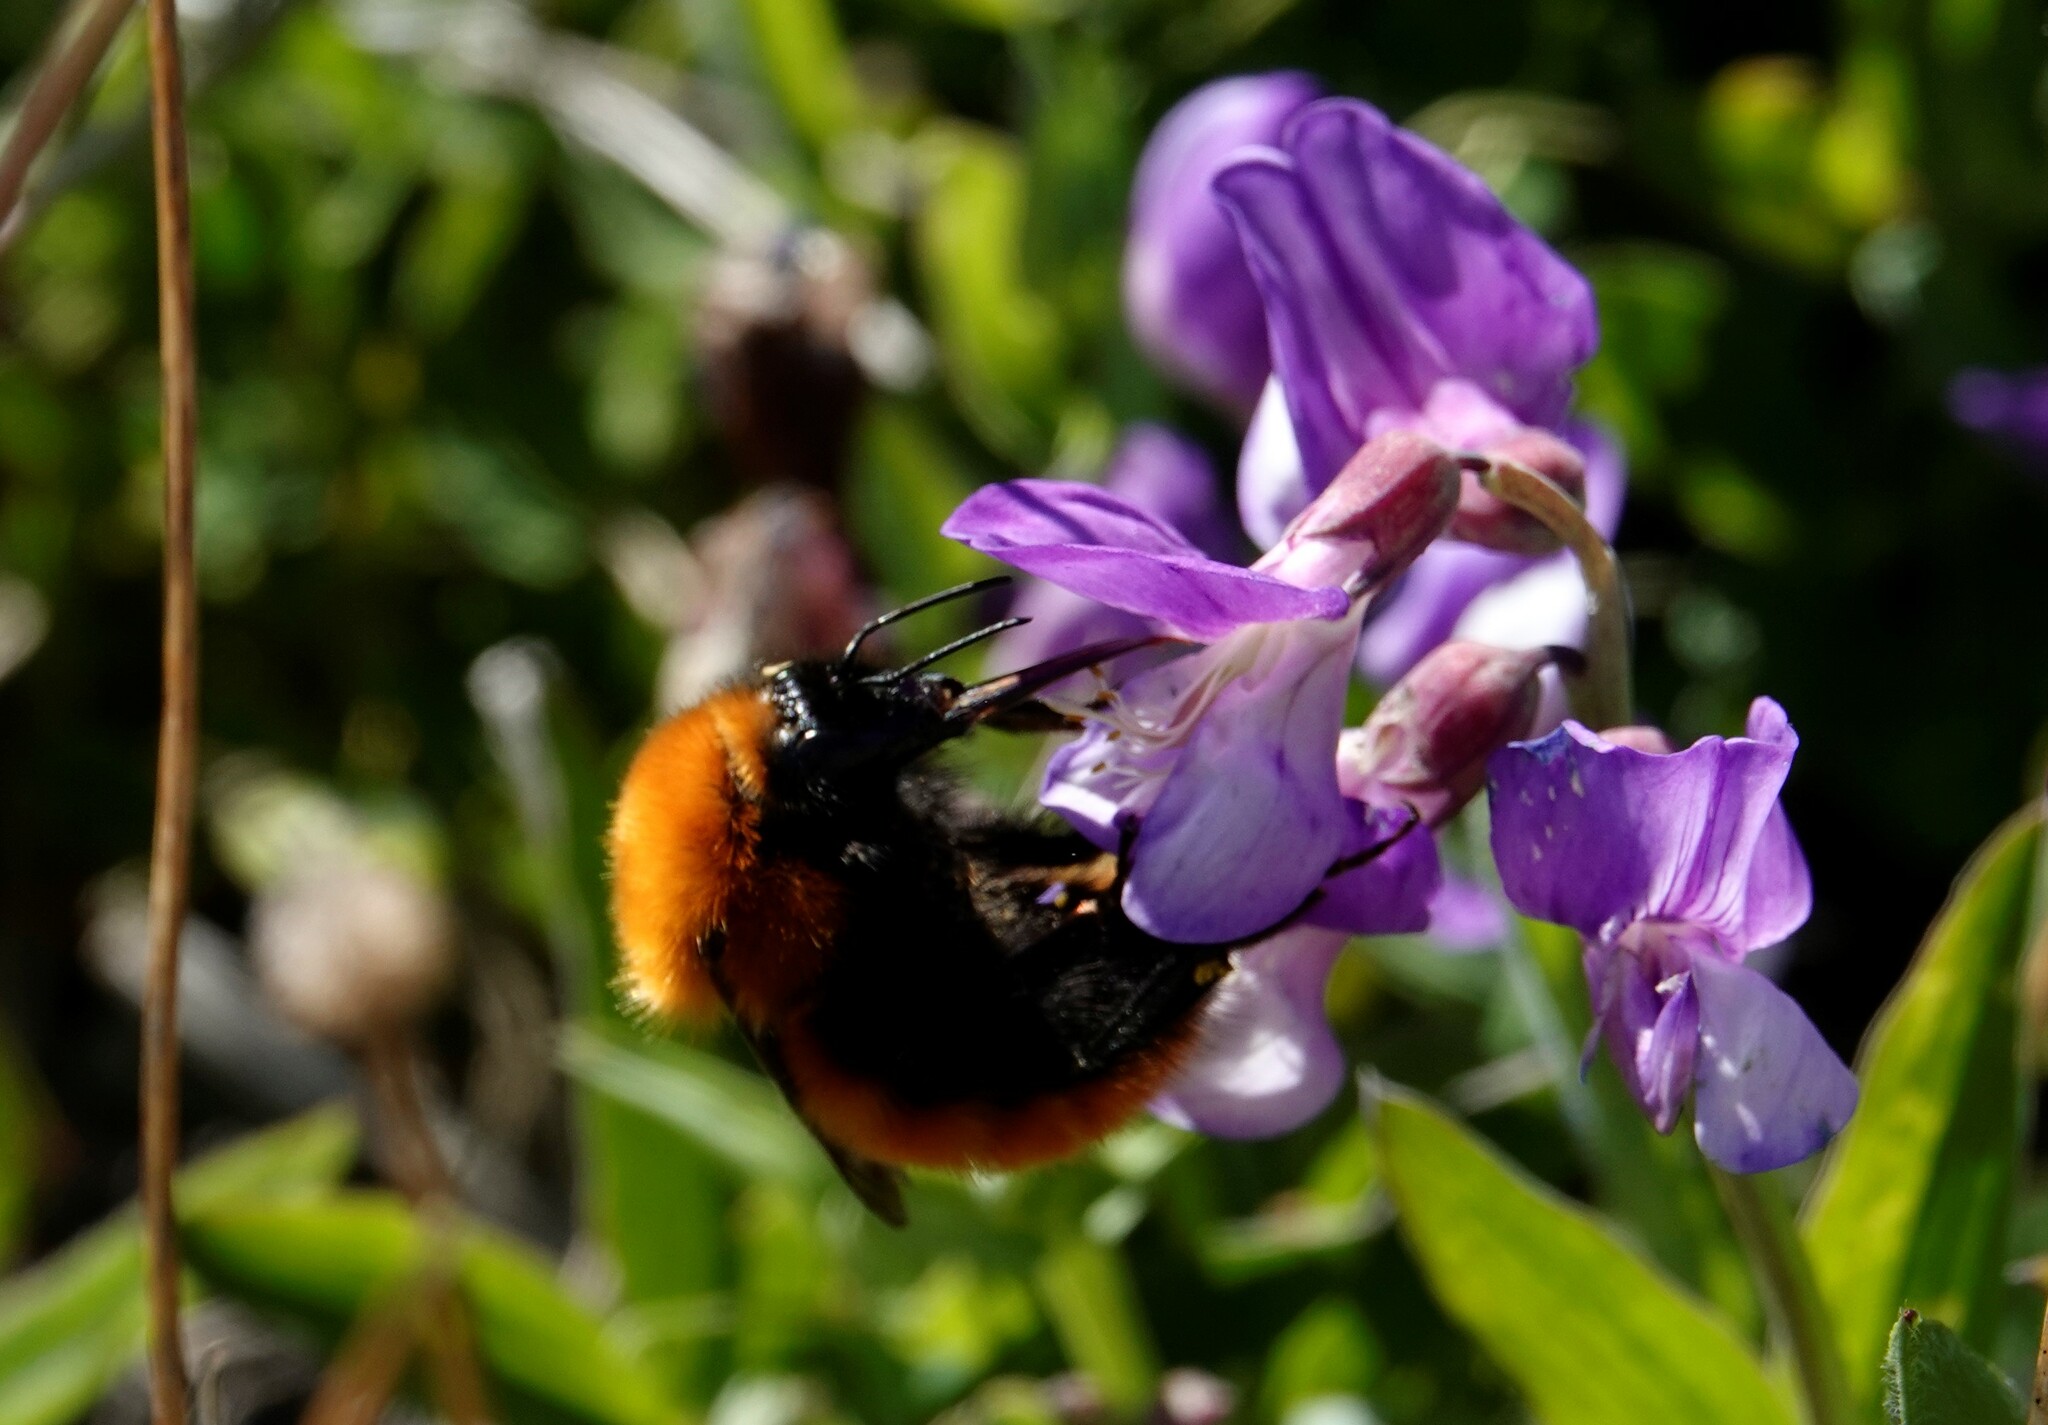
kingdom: Animalia
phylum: Arthropoda
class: Insecta
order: Hymenoptera
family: Apidae
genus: Bombus
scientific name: Bombus dahlbomii
